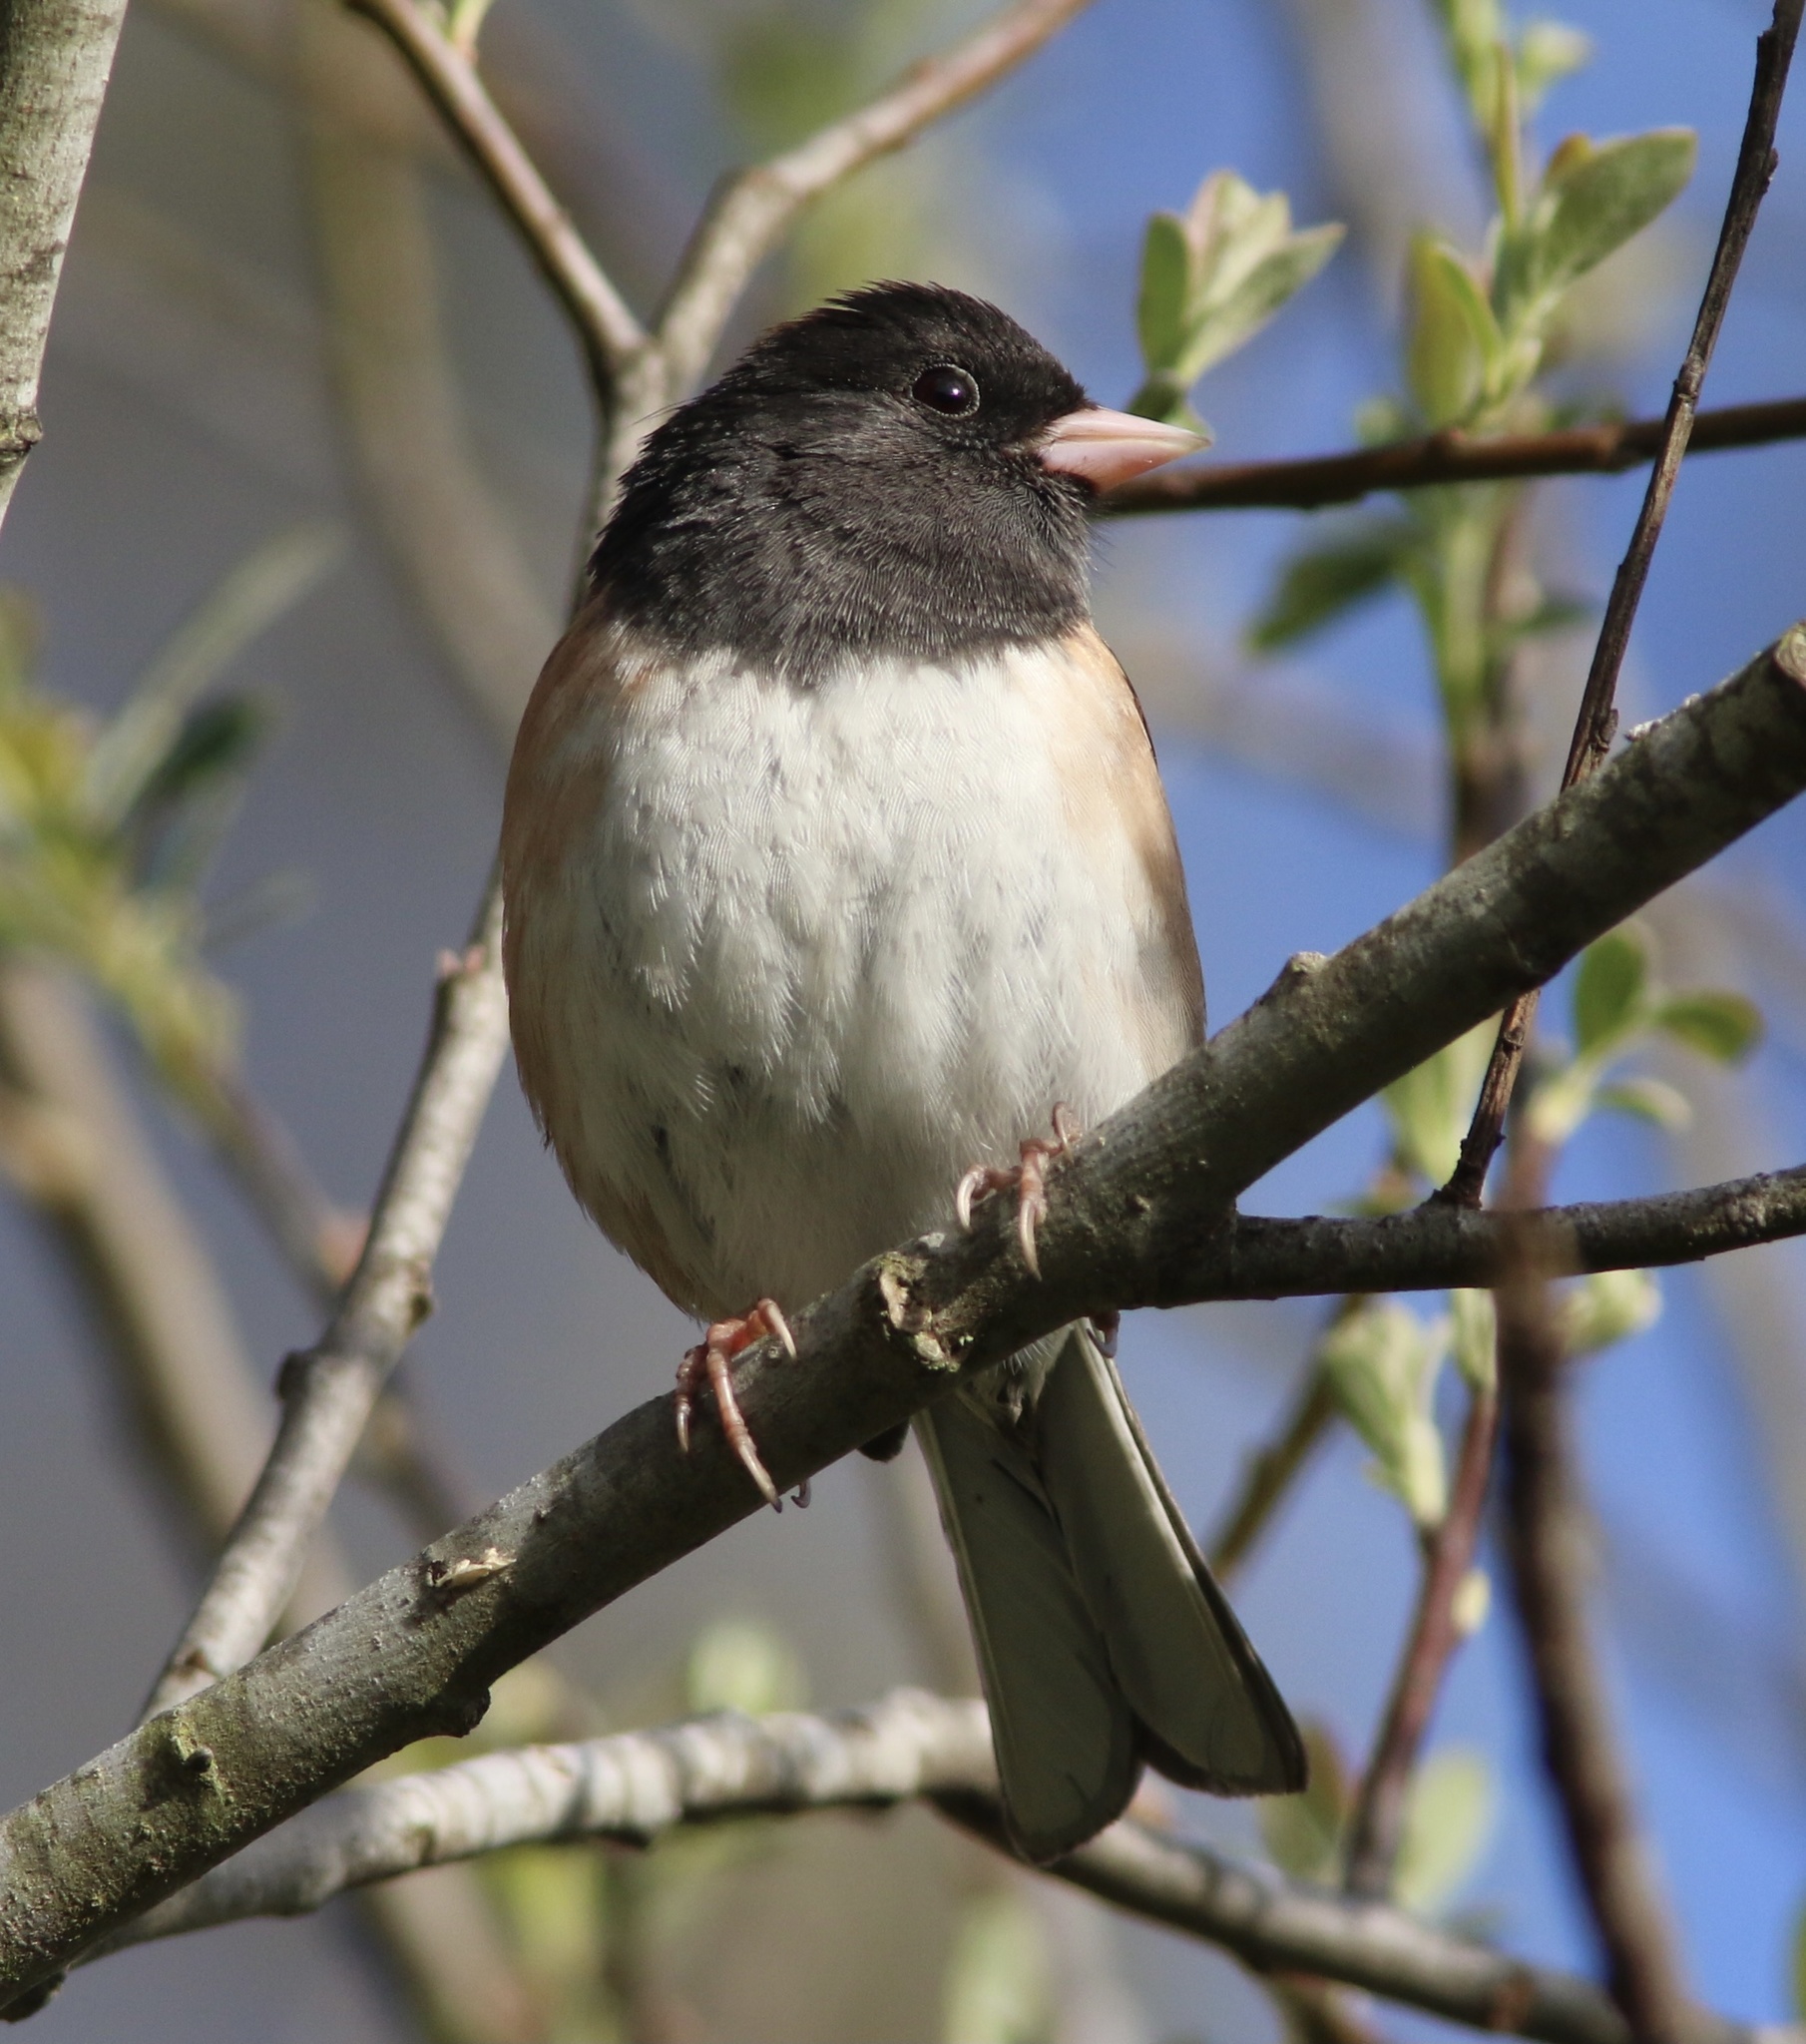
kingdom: Animalia
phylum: Chordata
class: Aves
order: Passeriformes
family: Passerellidae
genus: Junco
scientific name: Junco hyemalis
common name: Dark-eyed junco
